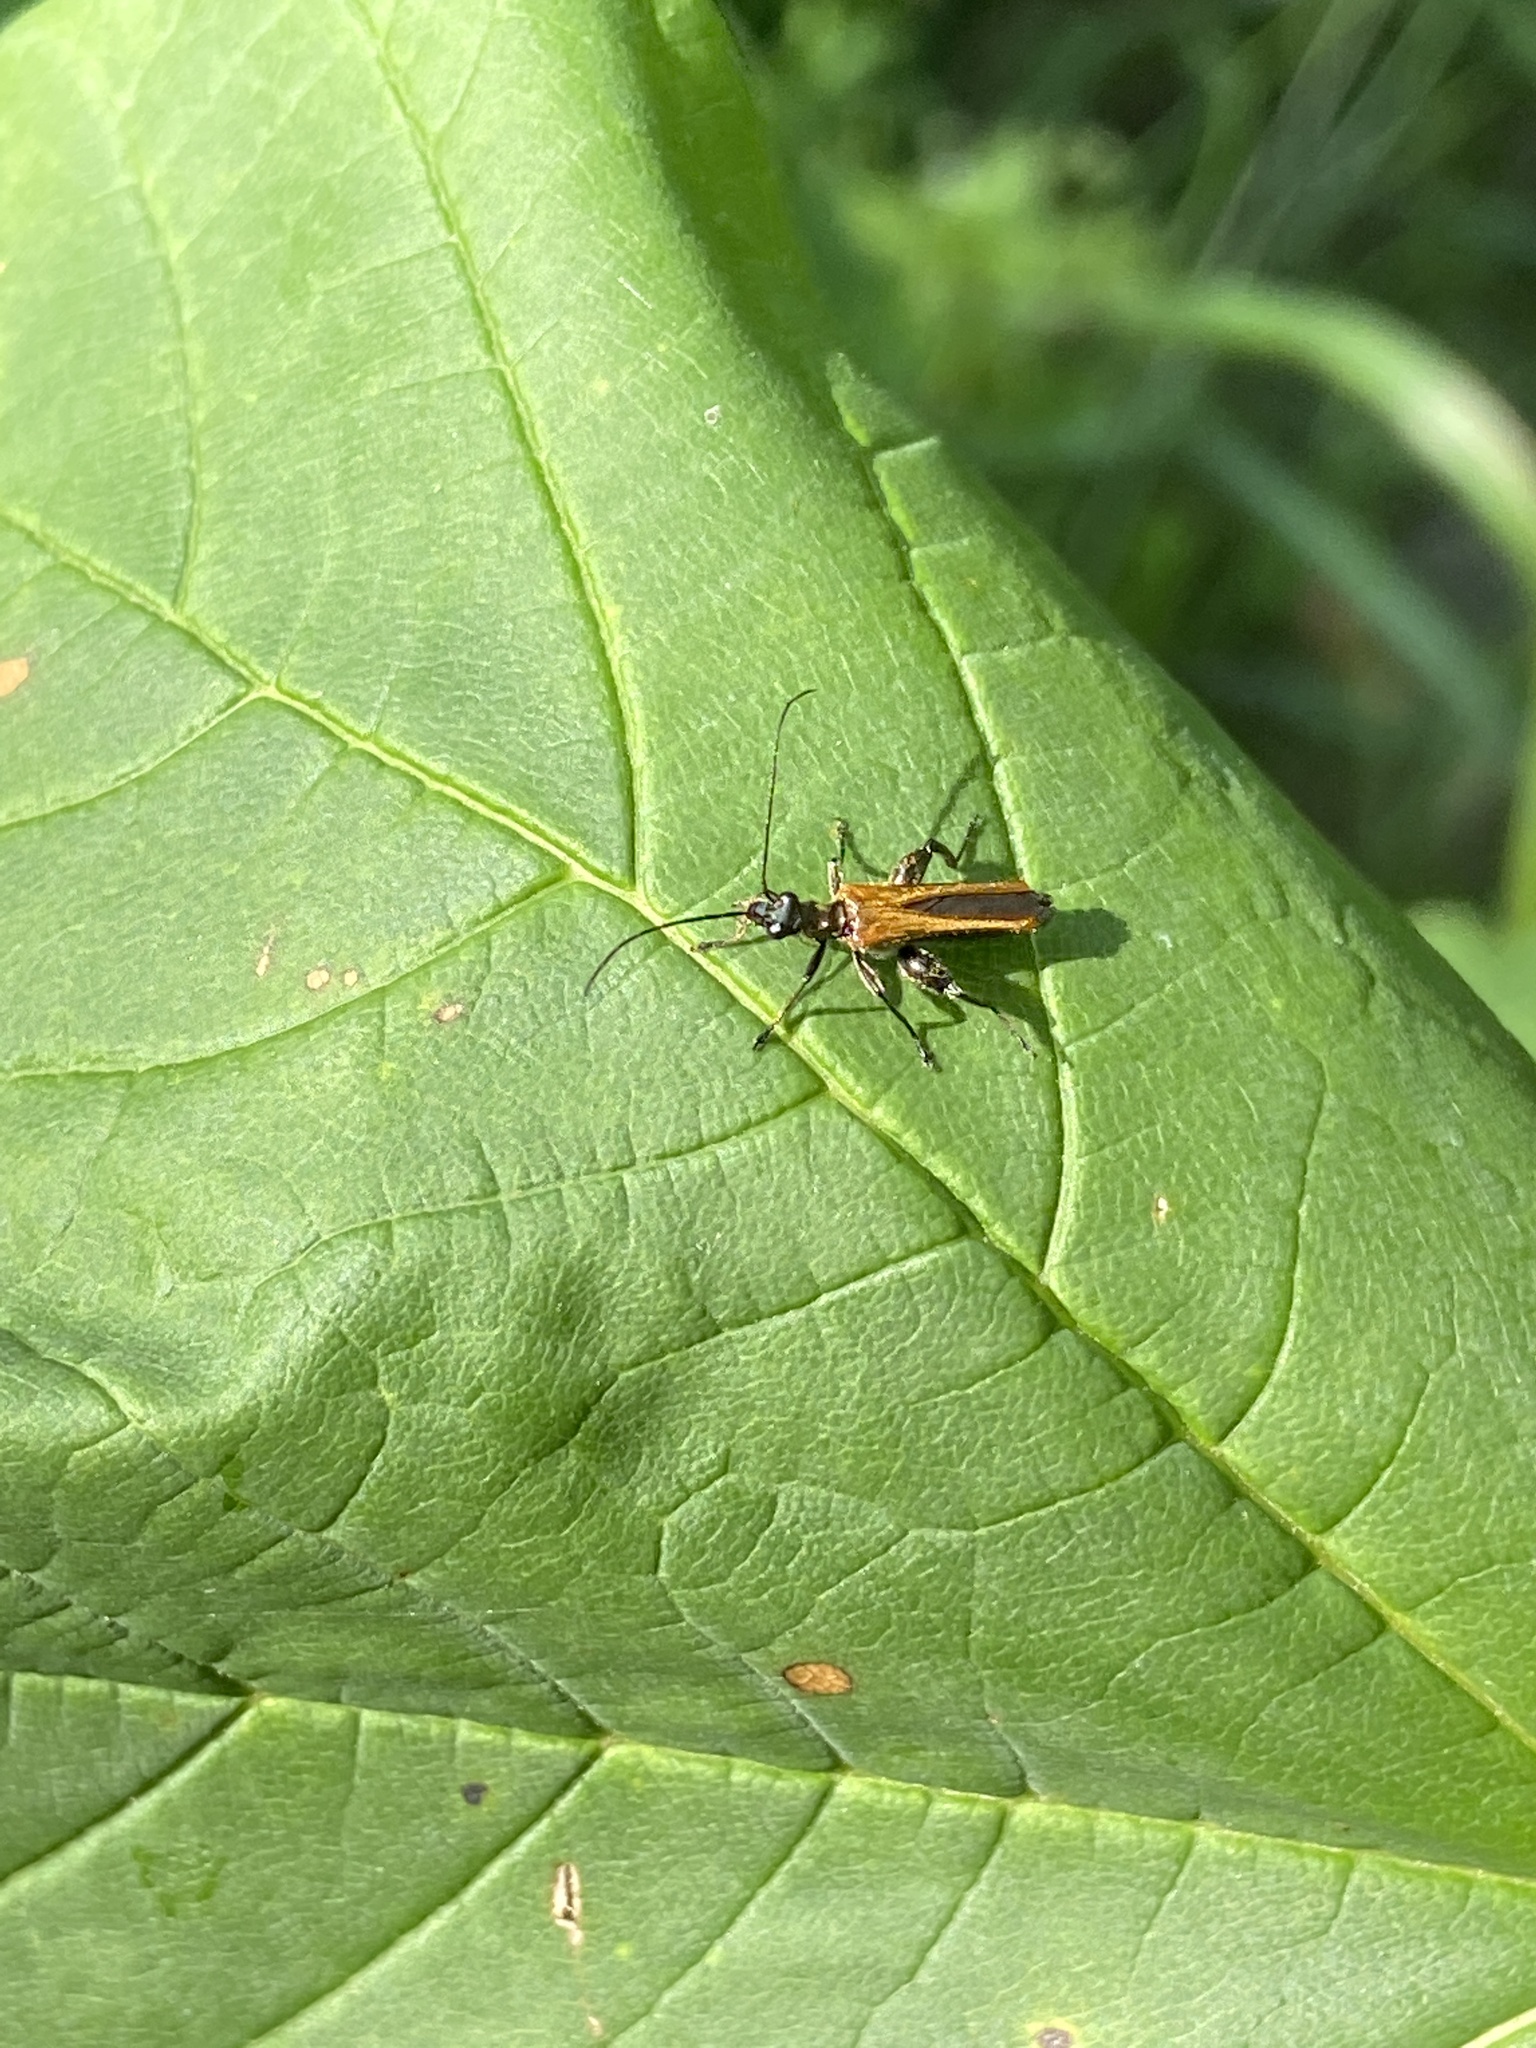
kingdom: Animalia
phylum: Arthropoda
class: Insecta
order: Coleoptera
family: Oedemeridae
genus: Oedemera
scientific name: Oedemera femorata
